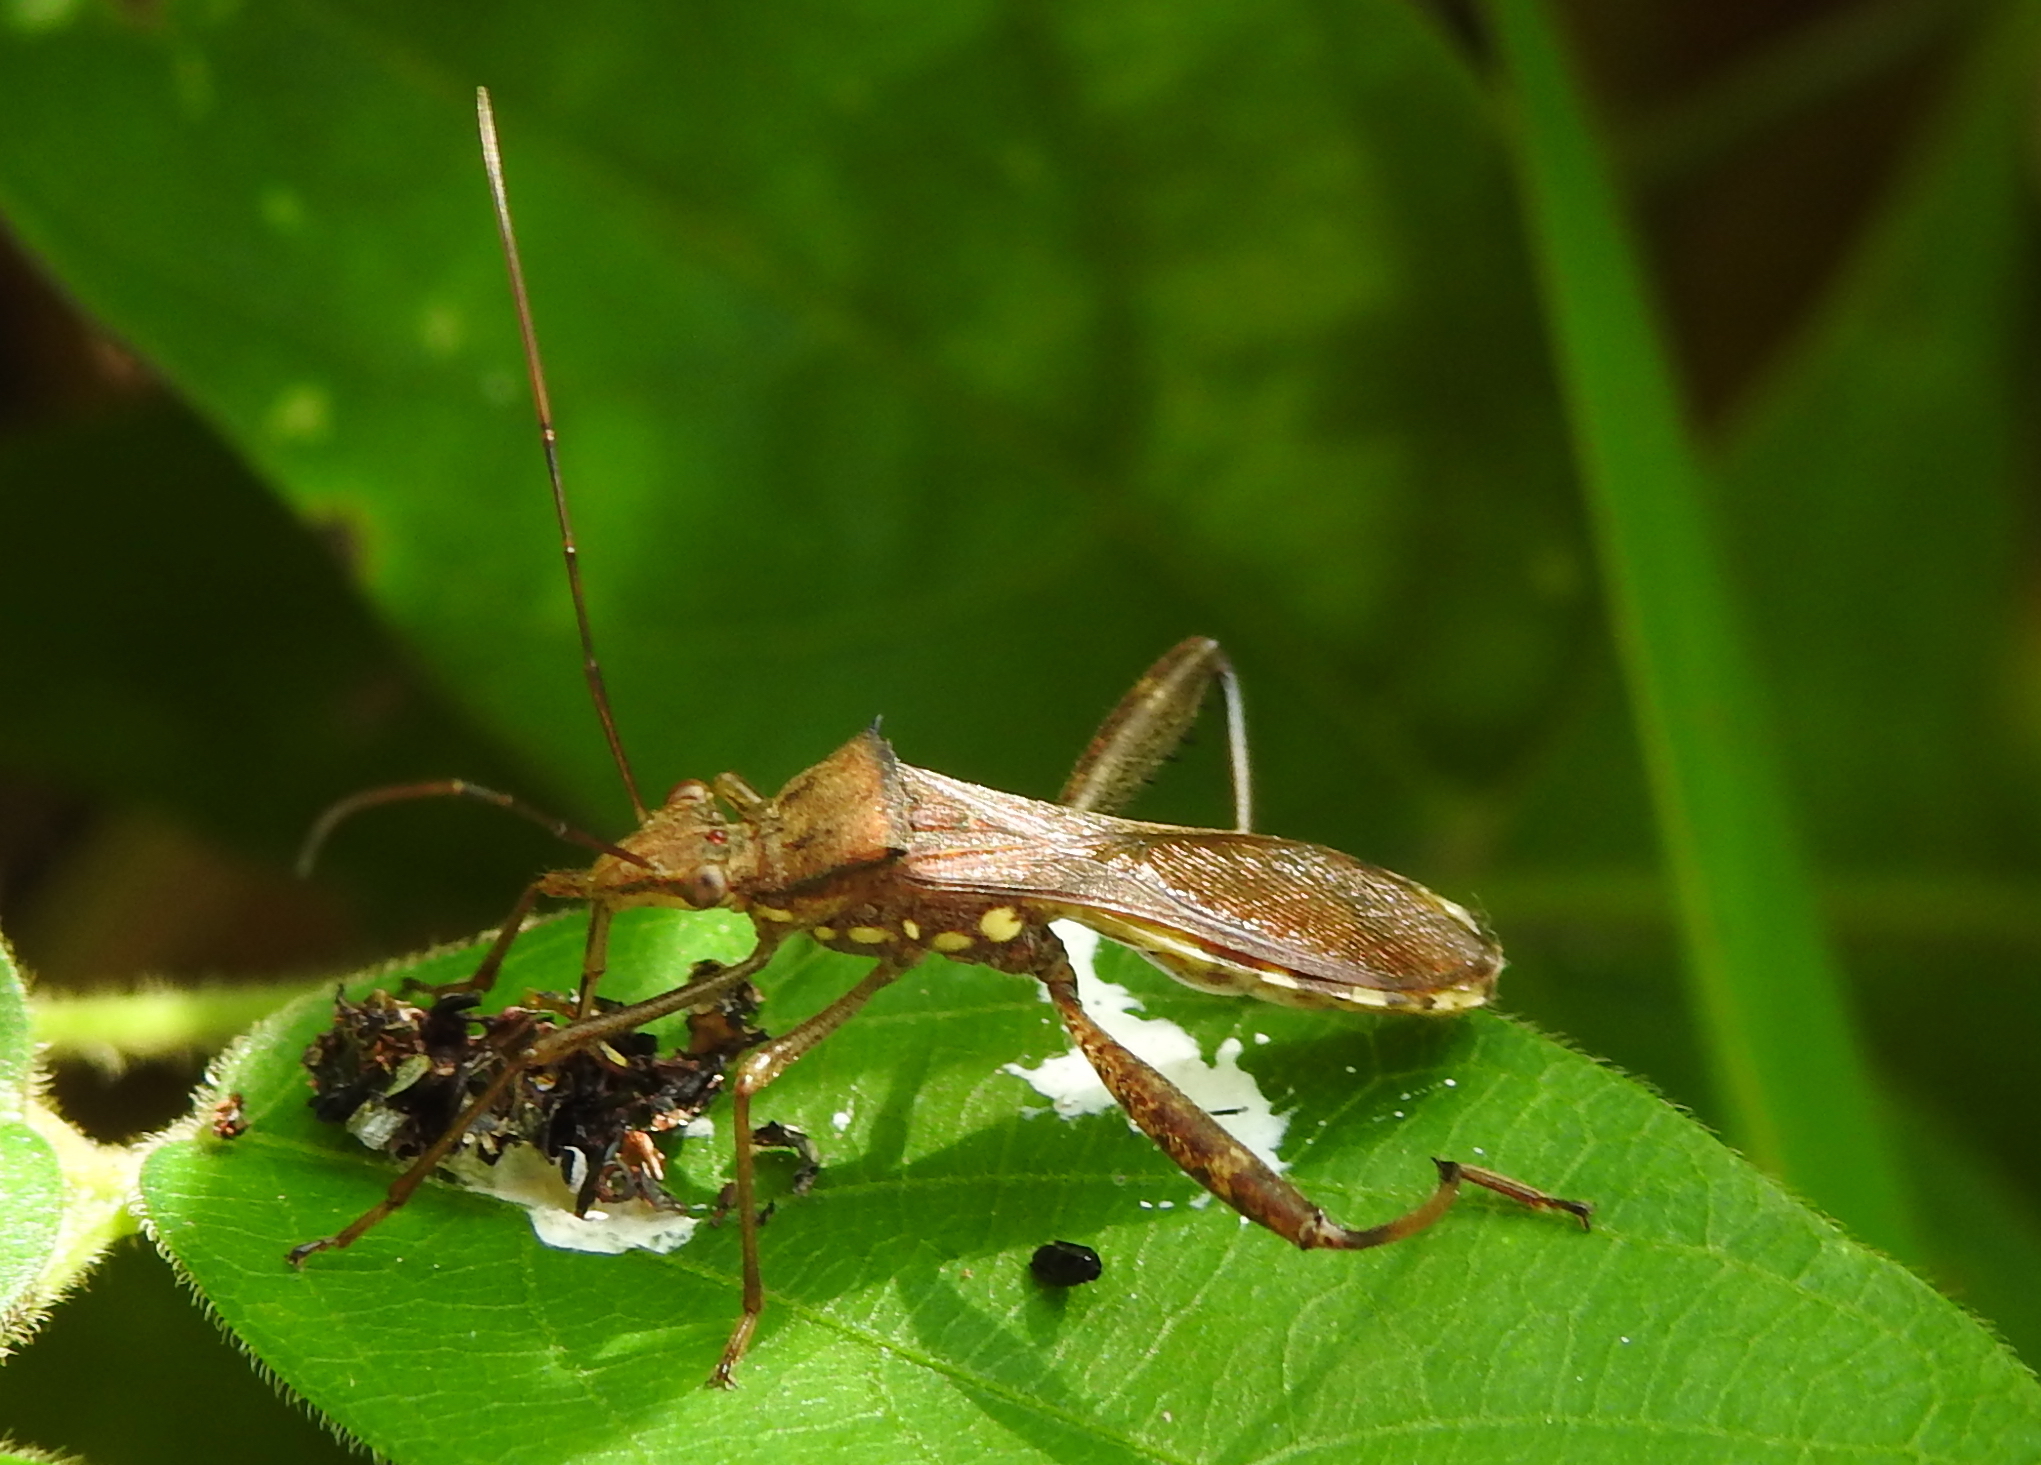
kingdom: Animalia
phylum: Arthropoda
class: Insecta
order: Hemiptera
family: Alydidae
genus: Riptortus
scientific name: Riptortus pedestris
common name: Bean bug
